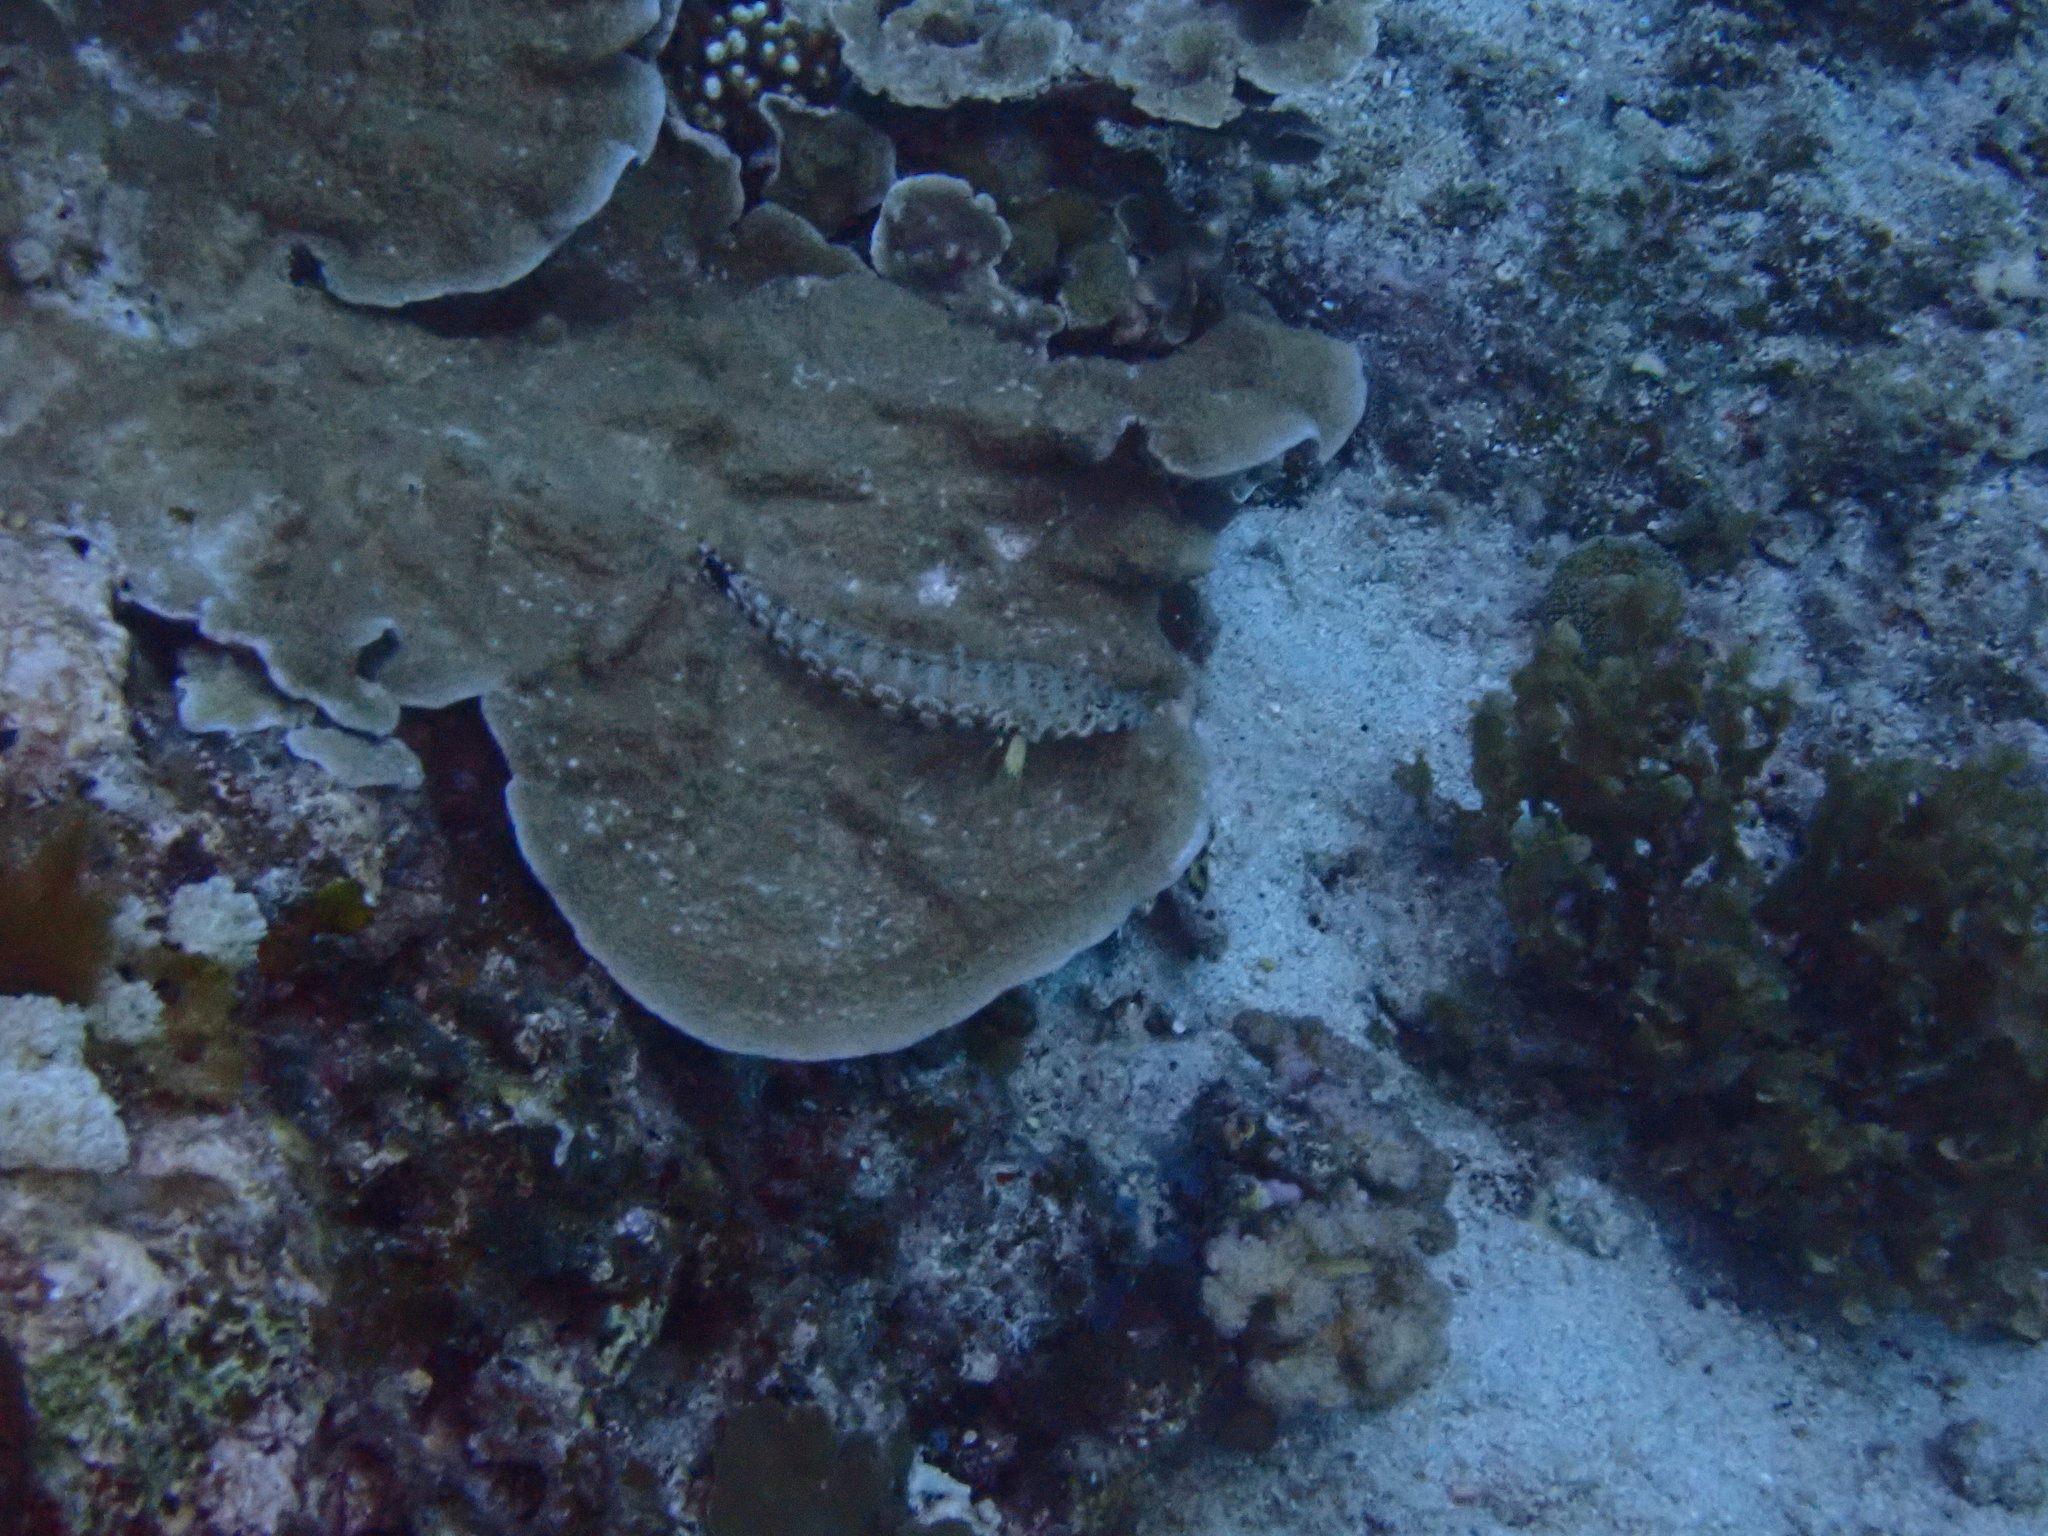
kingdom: Animalia
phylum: Chordata
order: Perciformes
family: Pinguipedidae
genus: Parapercis
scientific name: Parapercis millepunctata
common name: Black-dotted sandperch
